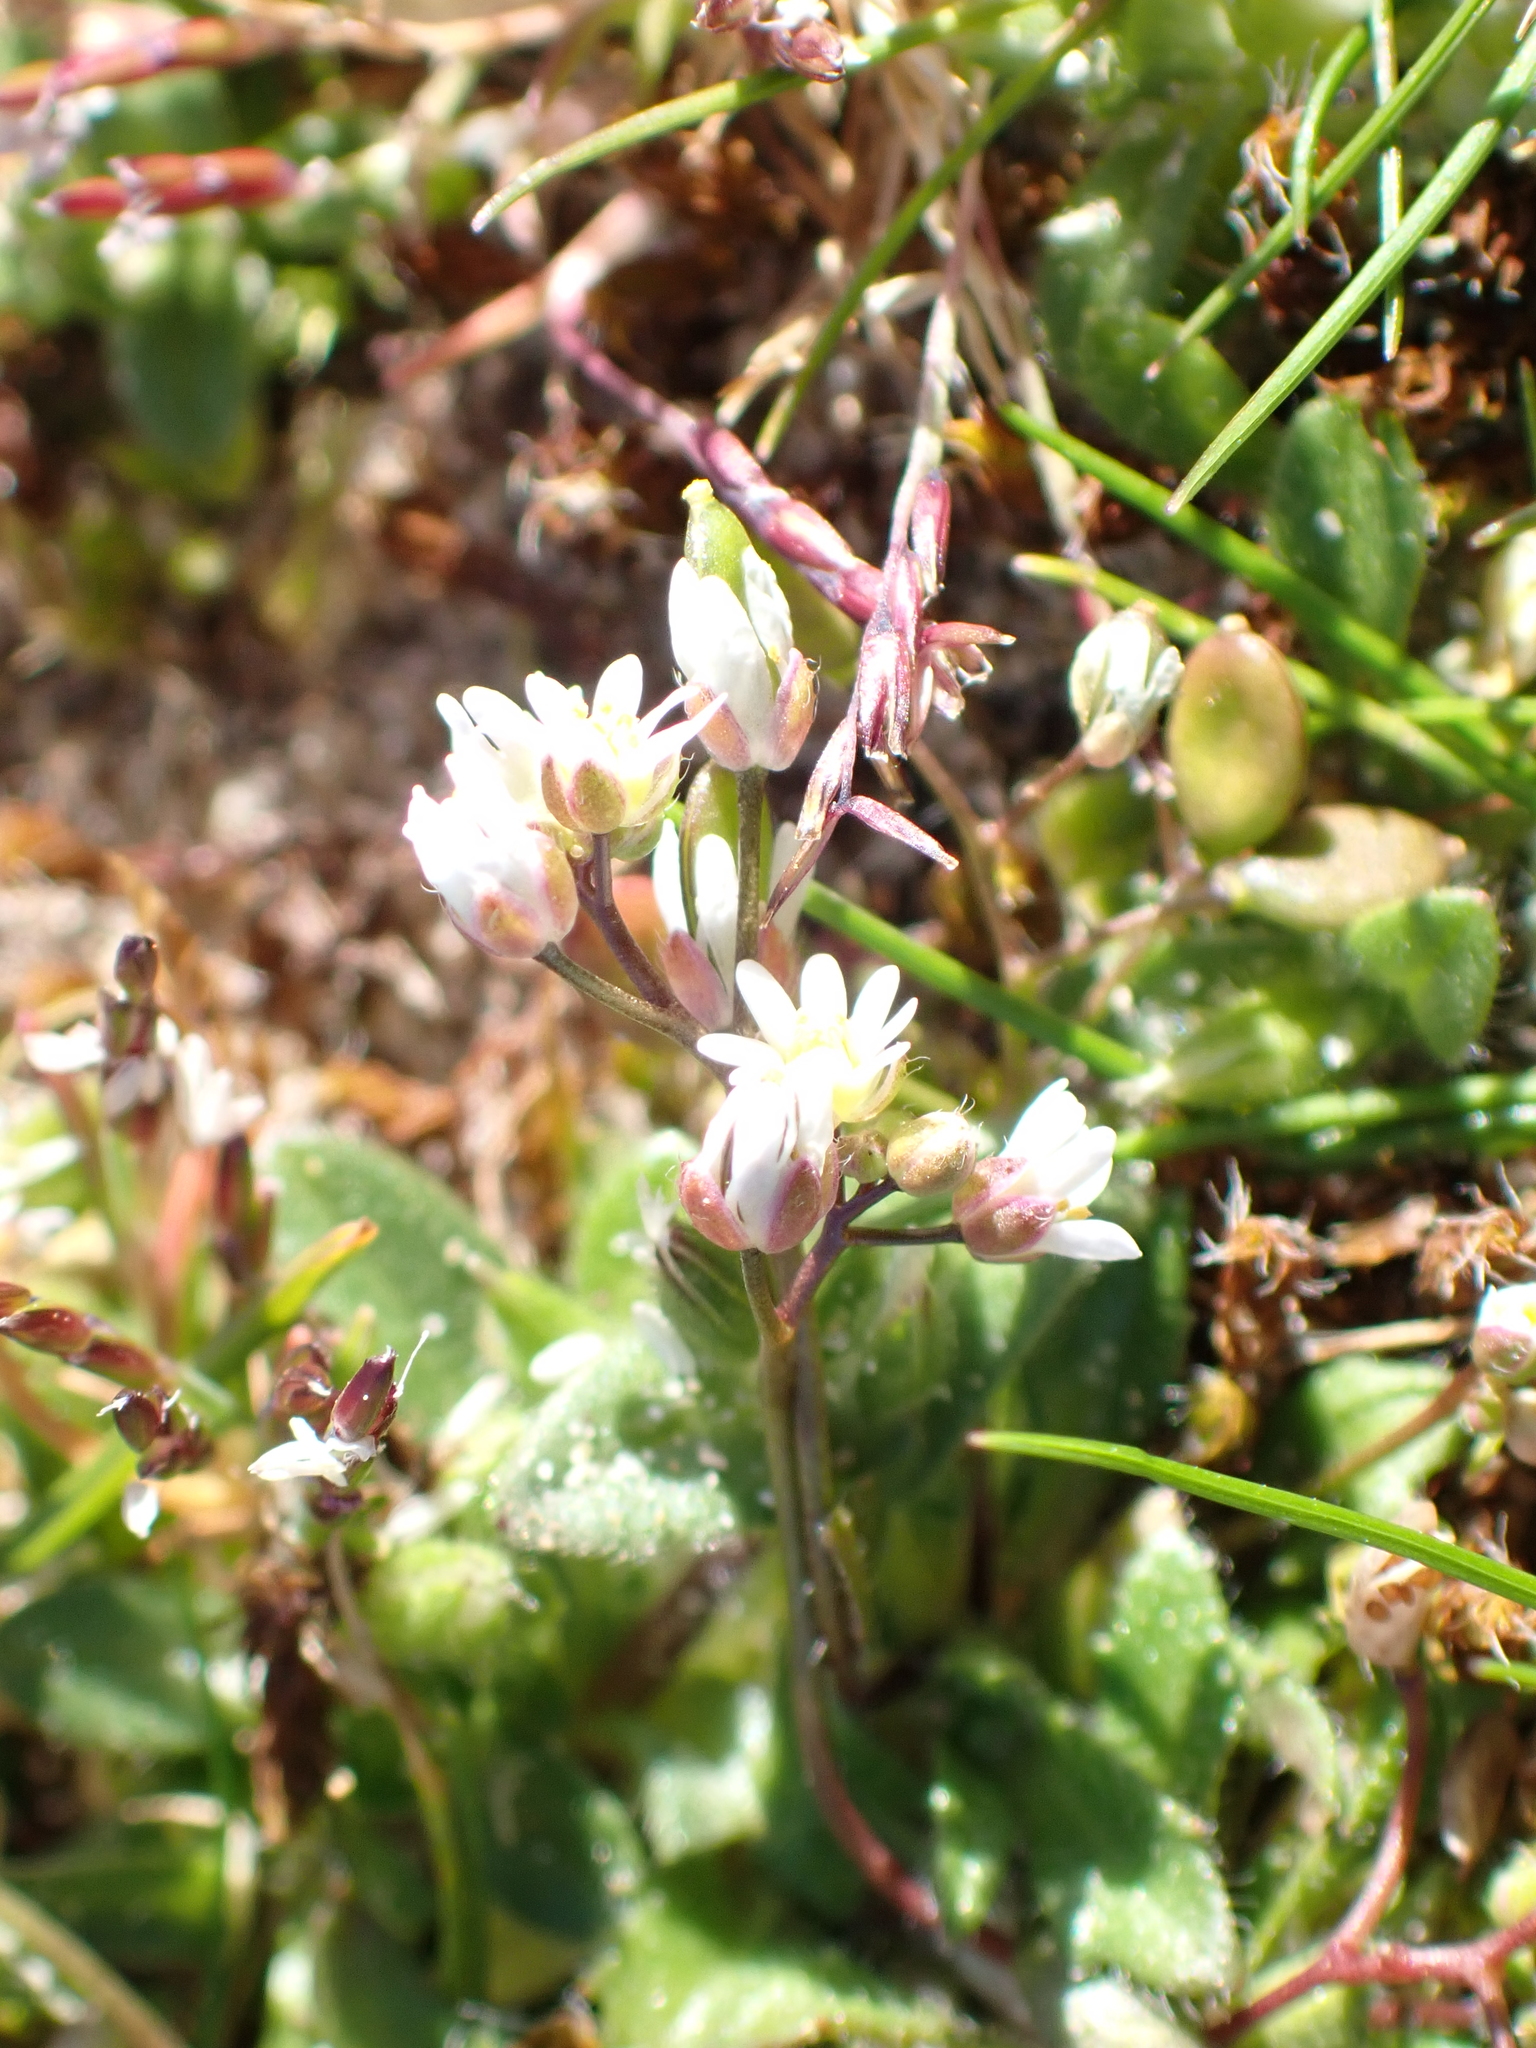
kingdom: Plantae
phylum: Tracheophyta
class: Magnoliopsida
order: Brassicales
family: Brassicaceae
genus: Draba
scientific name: Draba verna
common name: Spring draba
